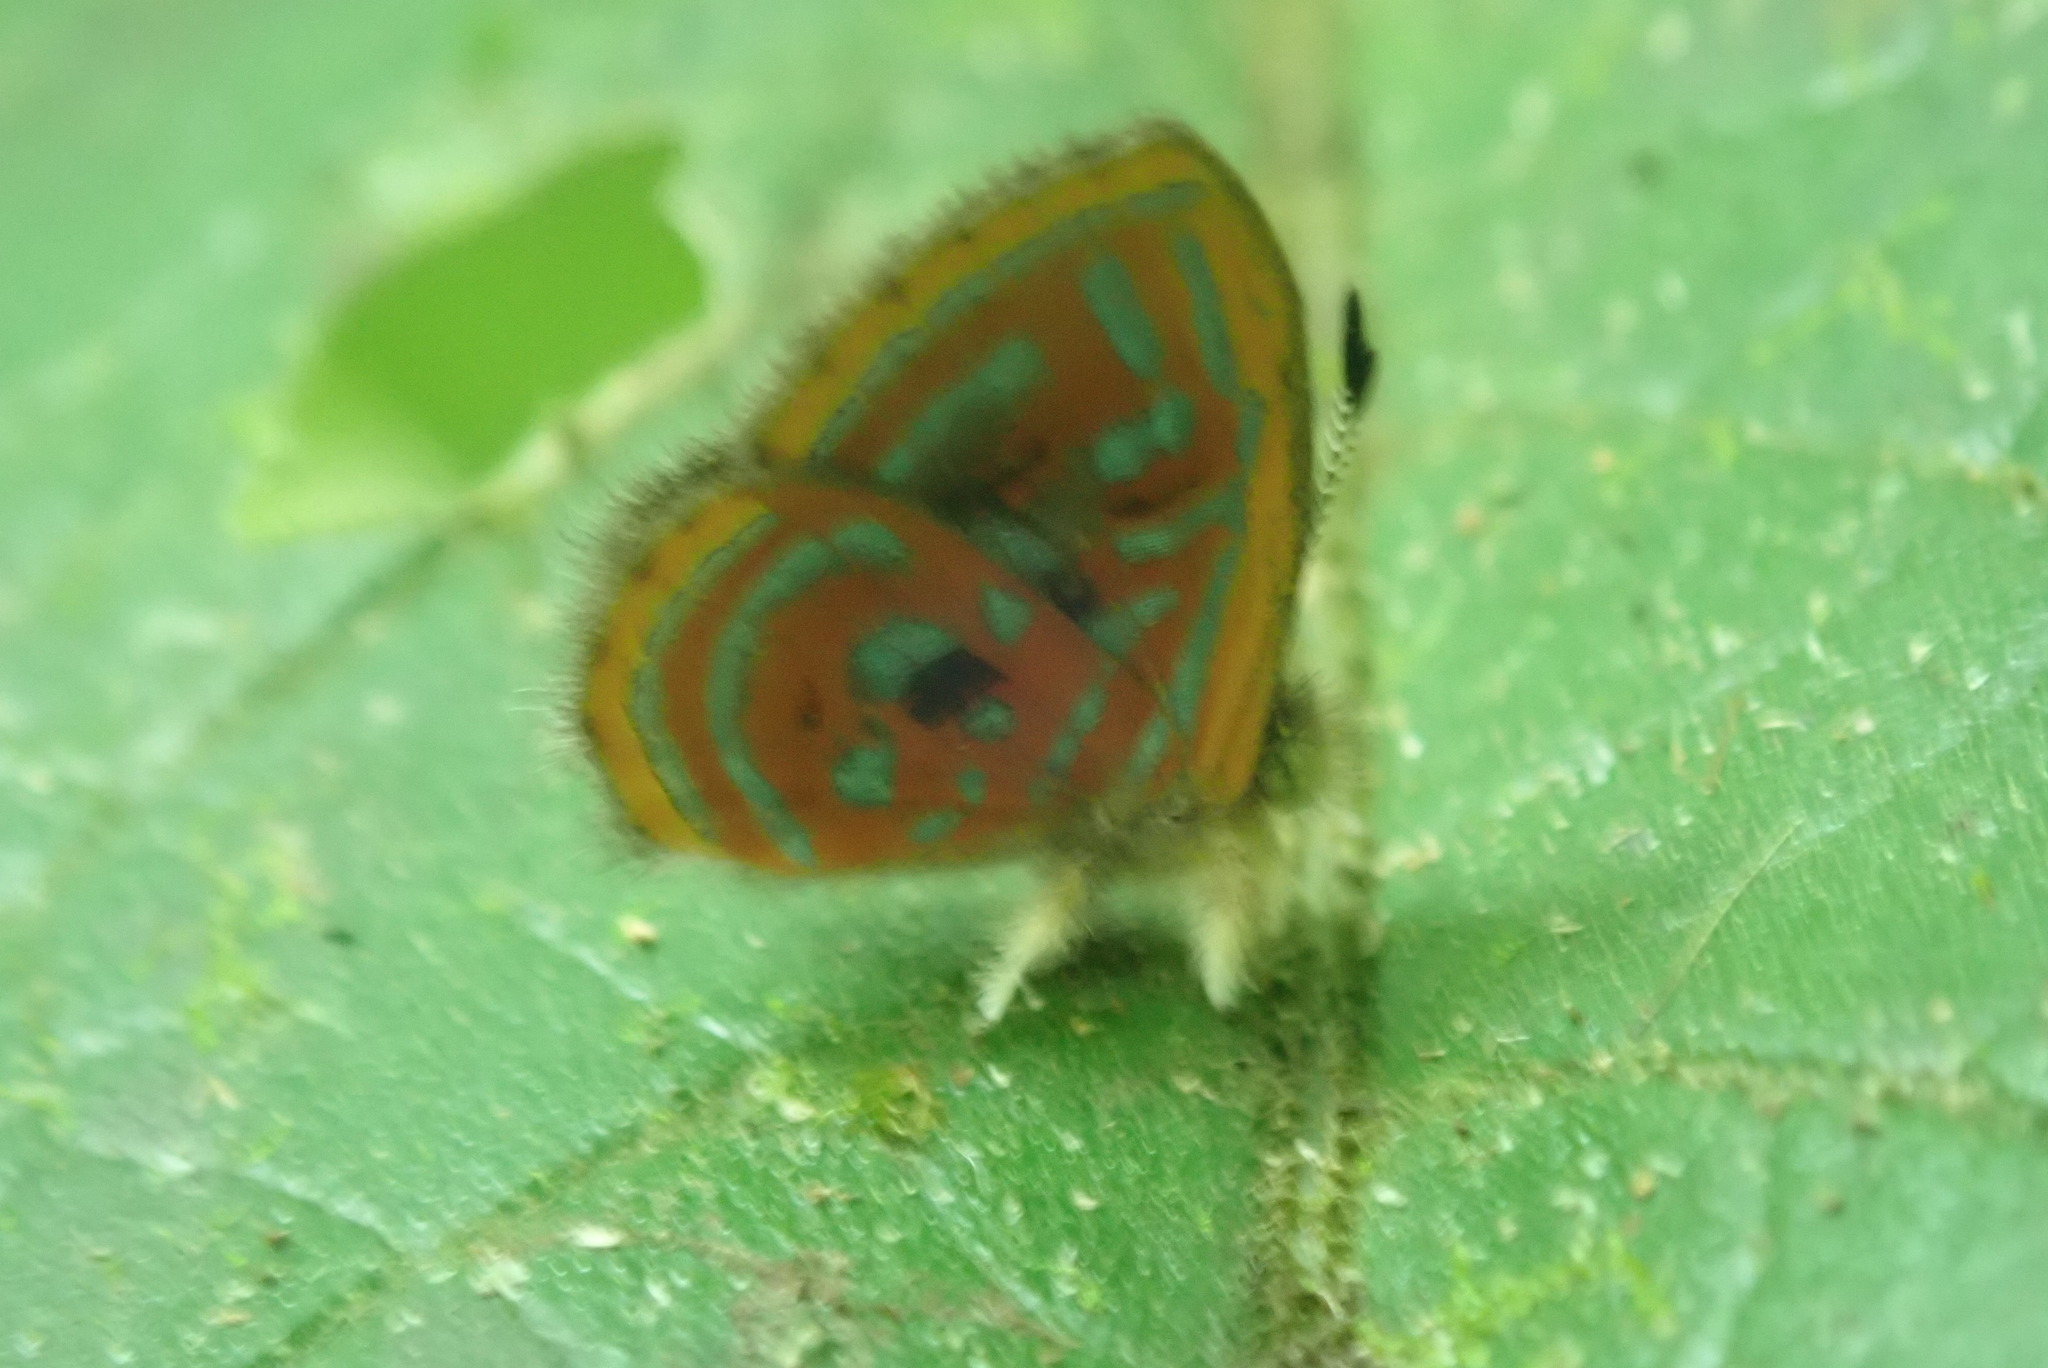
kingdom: Animalia
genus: Charis
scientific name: Charis Sarota acantus
